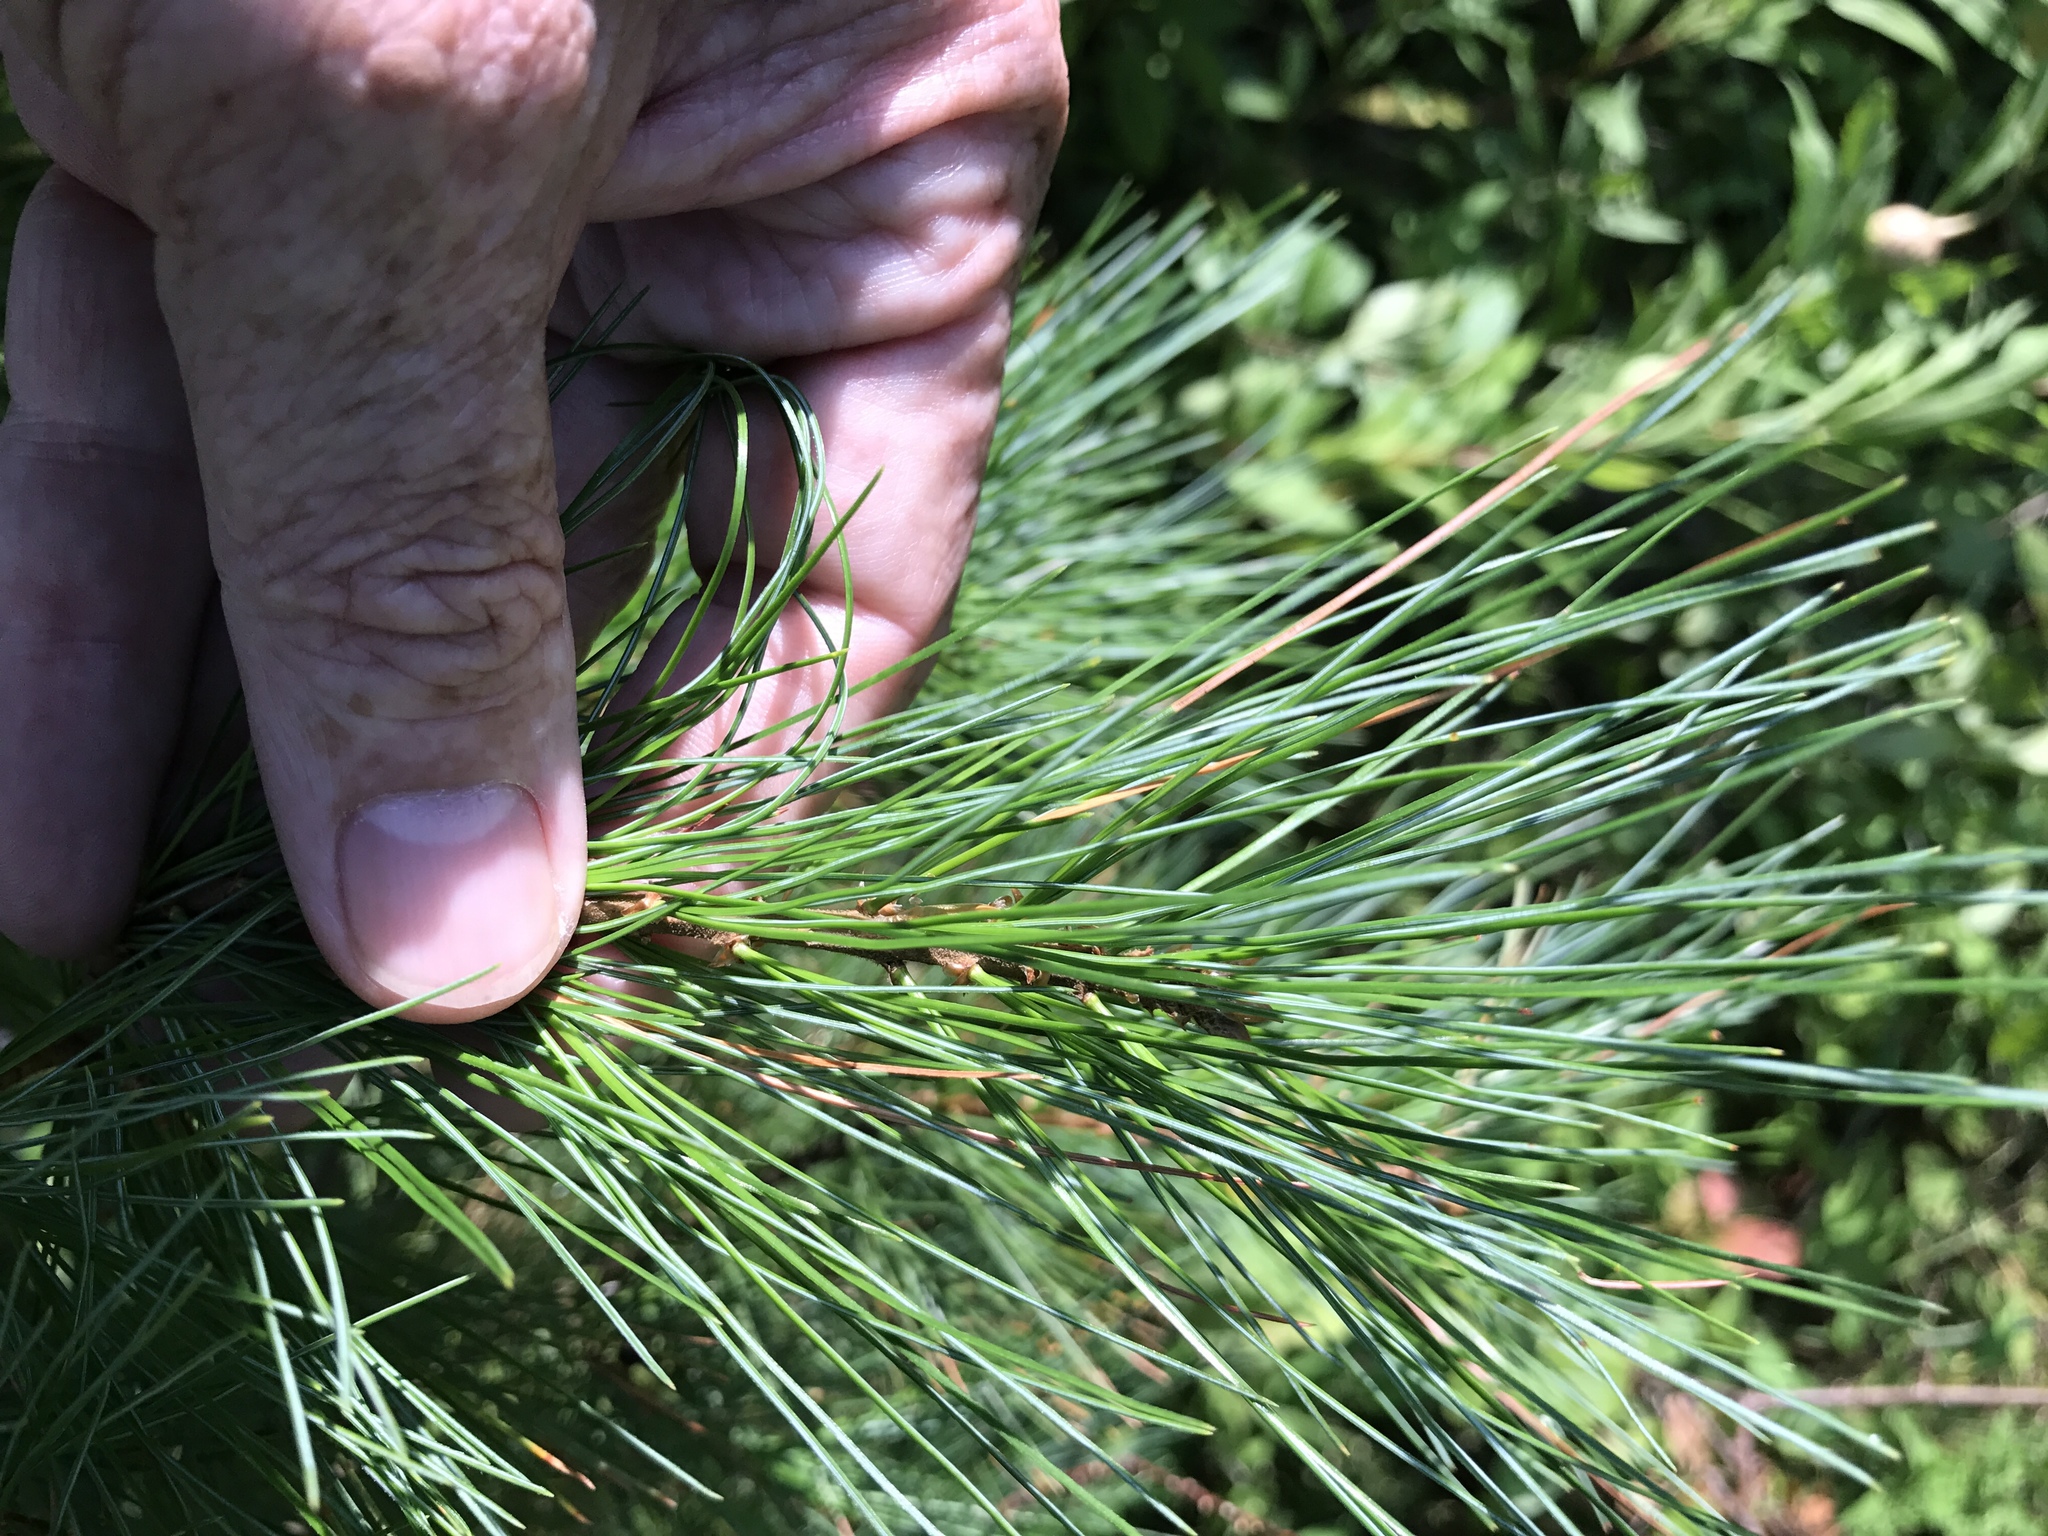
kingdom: Plantae
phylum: Tracheophyta
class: Pinopsida
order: Pinales
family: Pinaceae
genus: Pinus
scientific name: Pinus strobus
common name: Weymouth pine
